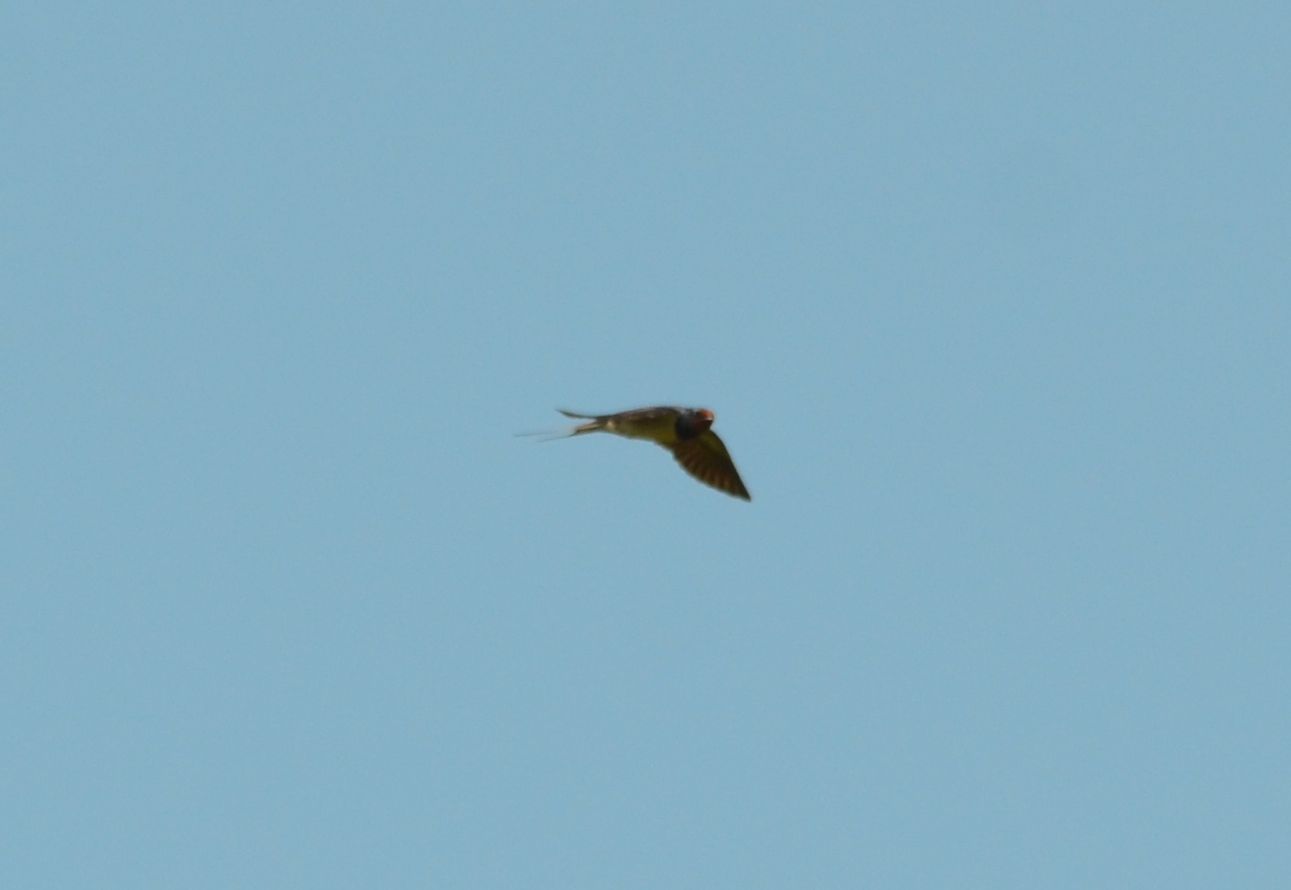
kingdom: Animalia
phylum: Chordata
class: Aves
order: Accipitriformes
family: Accipitridae
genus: Buteo
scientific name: Buteo buteo
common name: Common buzzard
